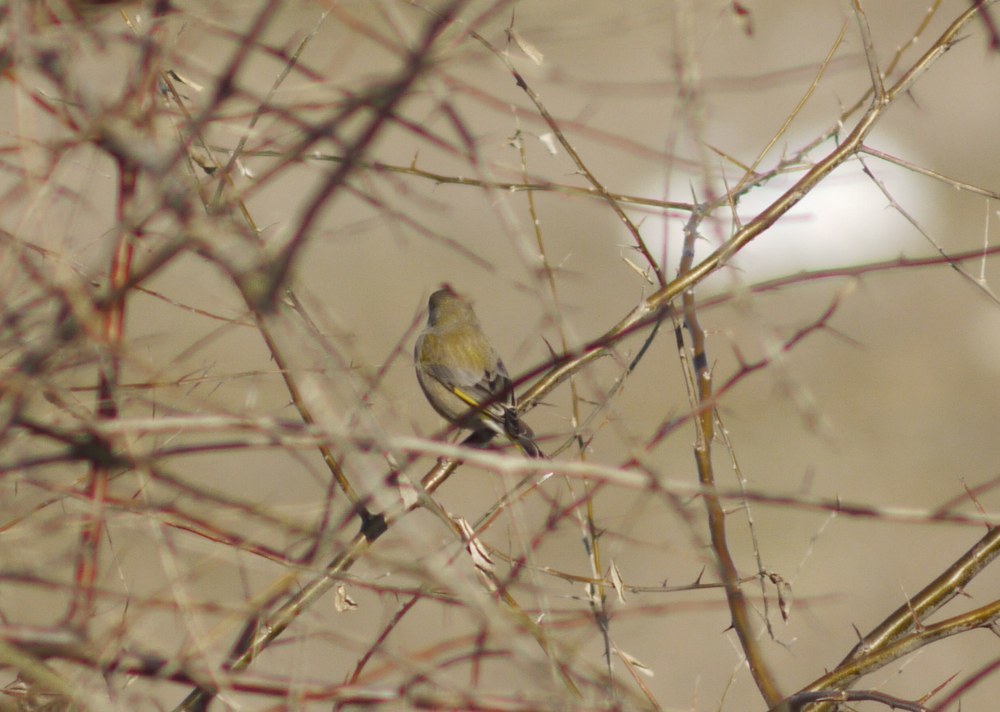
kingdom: Plantae
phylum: Tracheophyta
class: Liliopsida
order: Poales
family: Poaceae
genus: Chloris
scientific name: Chloris chloris
